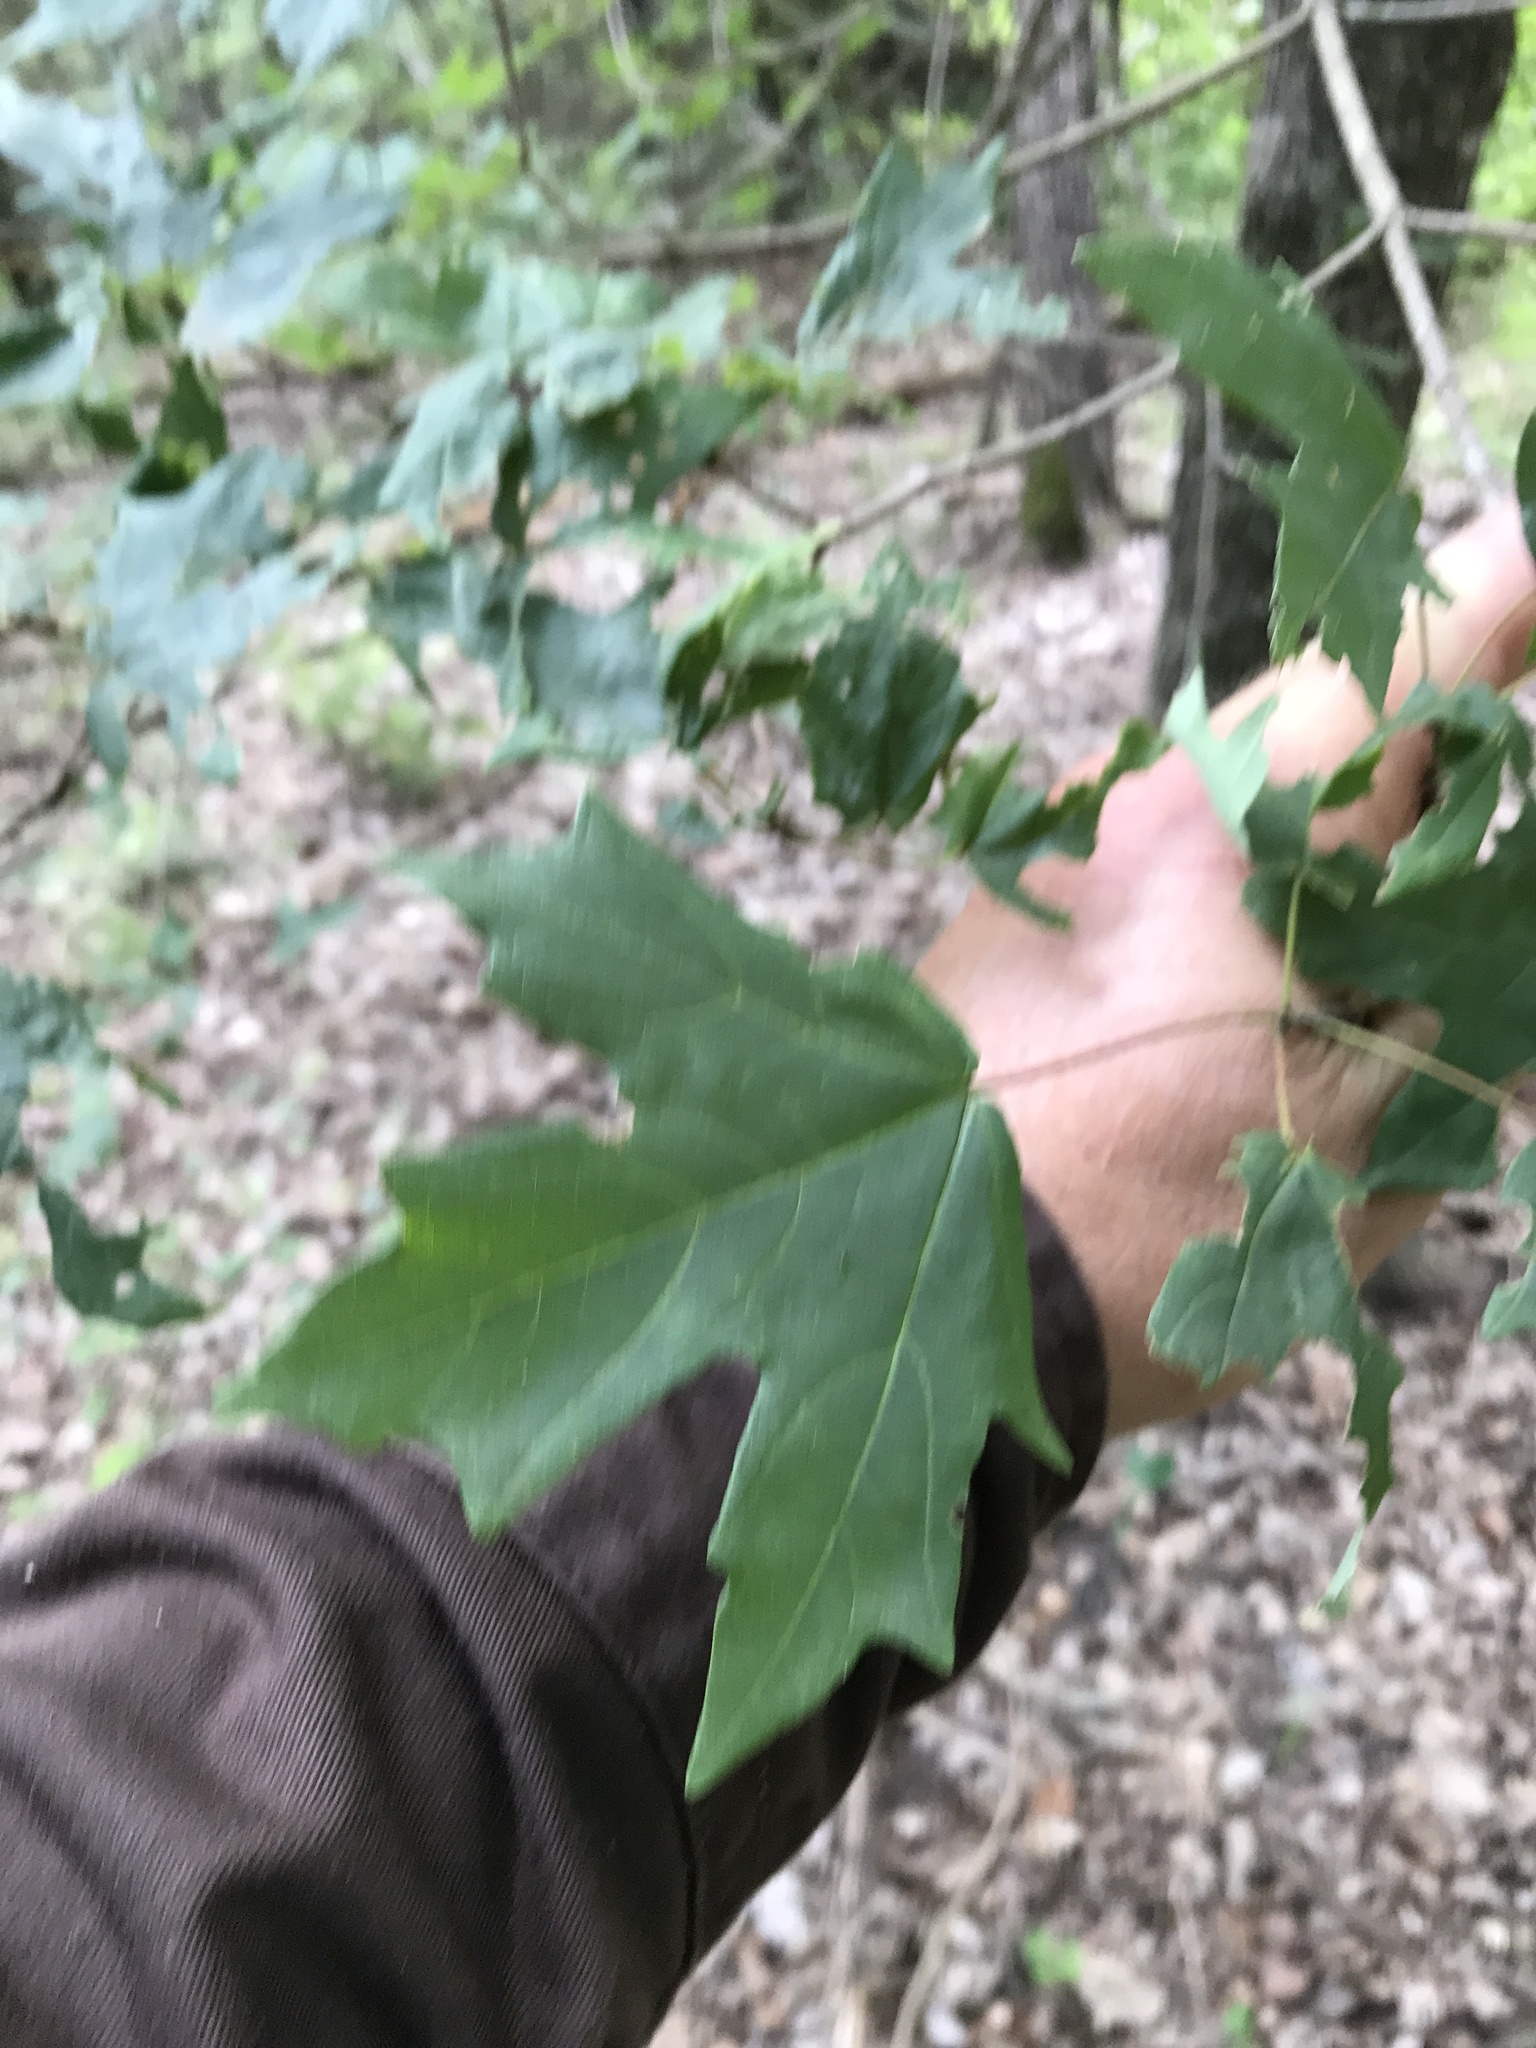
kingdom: Plantae
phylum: Tracheophyta
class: Magnoliopsida
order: Sapindales
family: Sapindaceae
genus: Acer
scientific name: Acer grandidentatum
